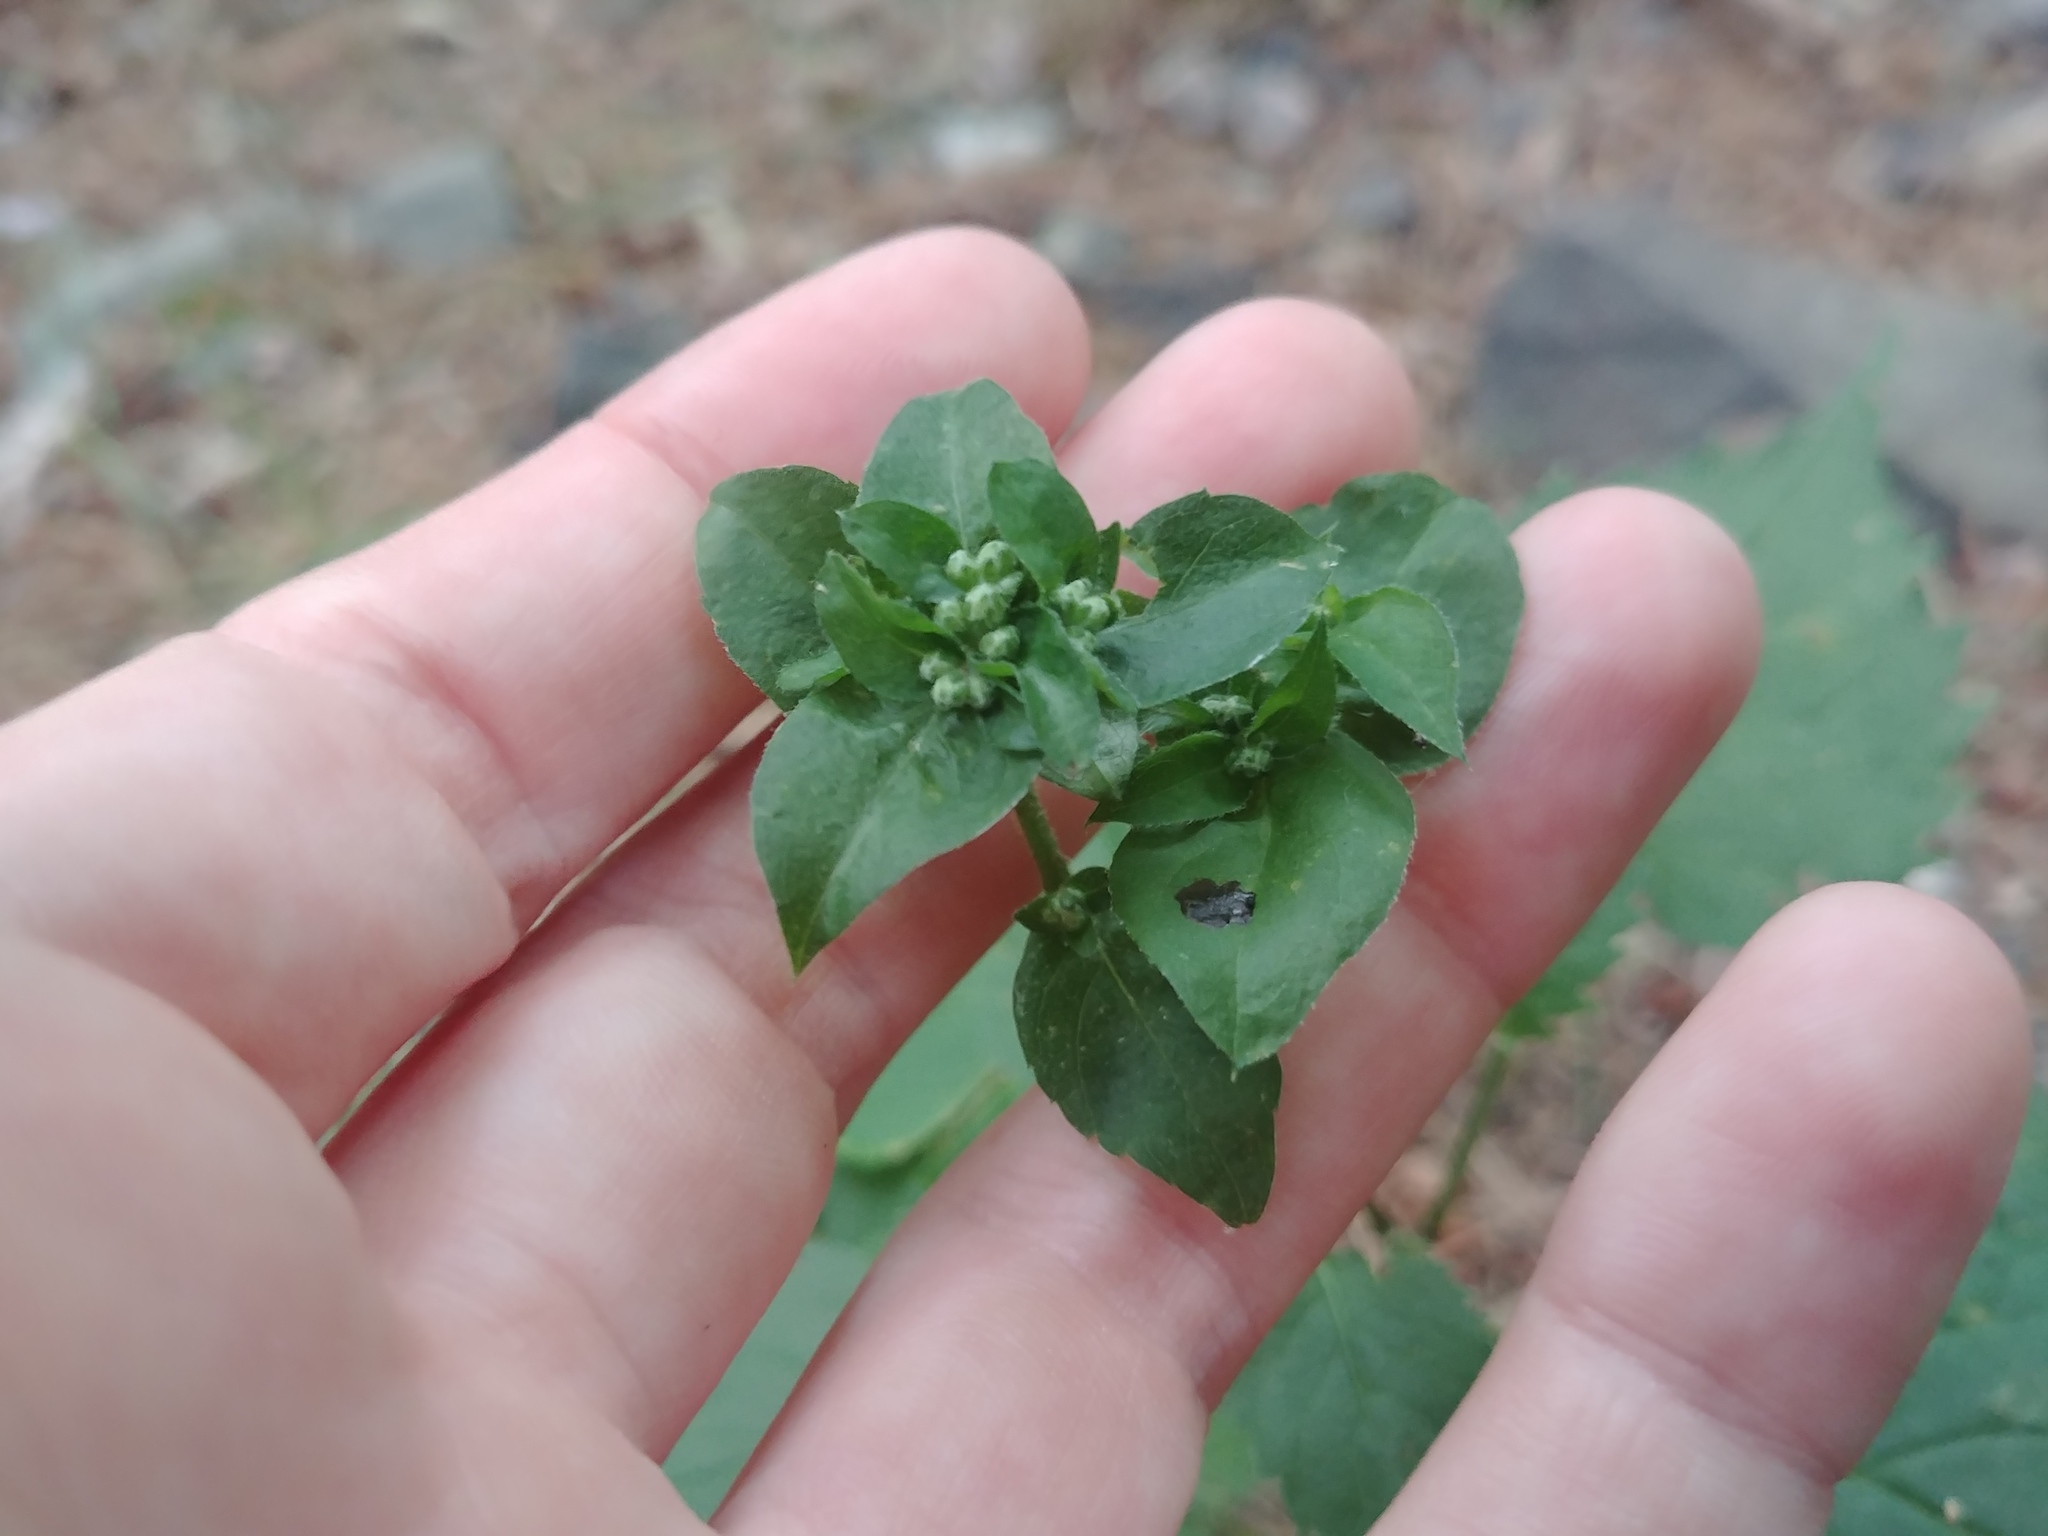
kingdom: Plantae
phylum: Tracheophyta
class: Magnoliopsida
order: Asterales
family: Asteraceae
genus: Eurybia
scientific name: Eurybia divaricata
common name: White wood aster
